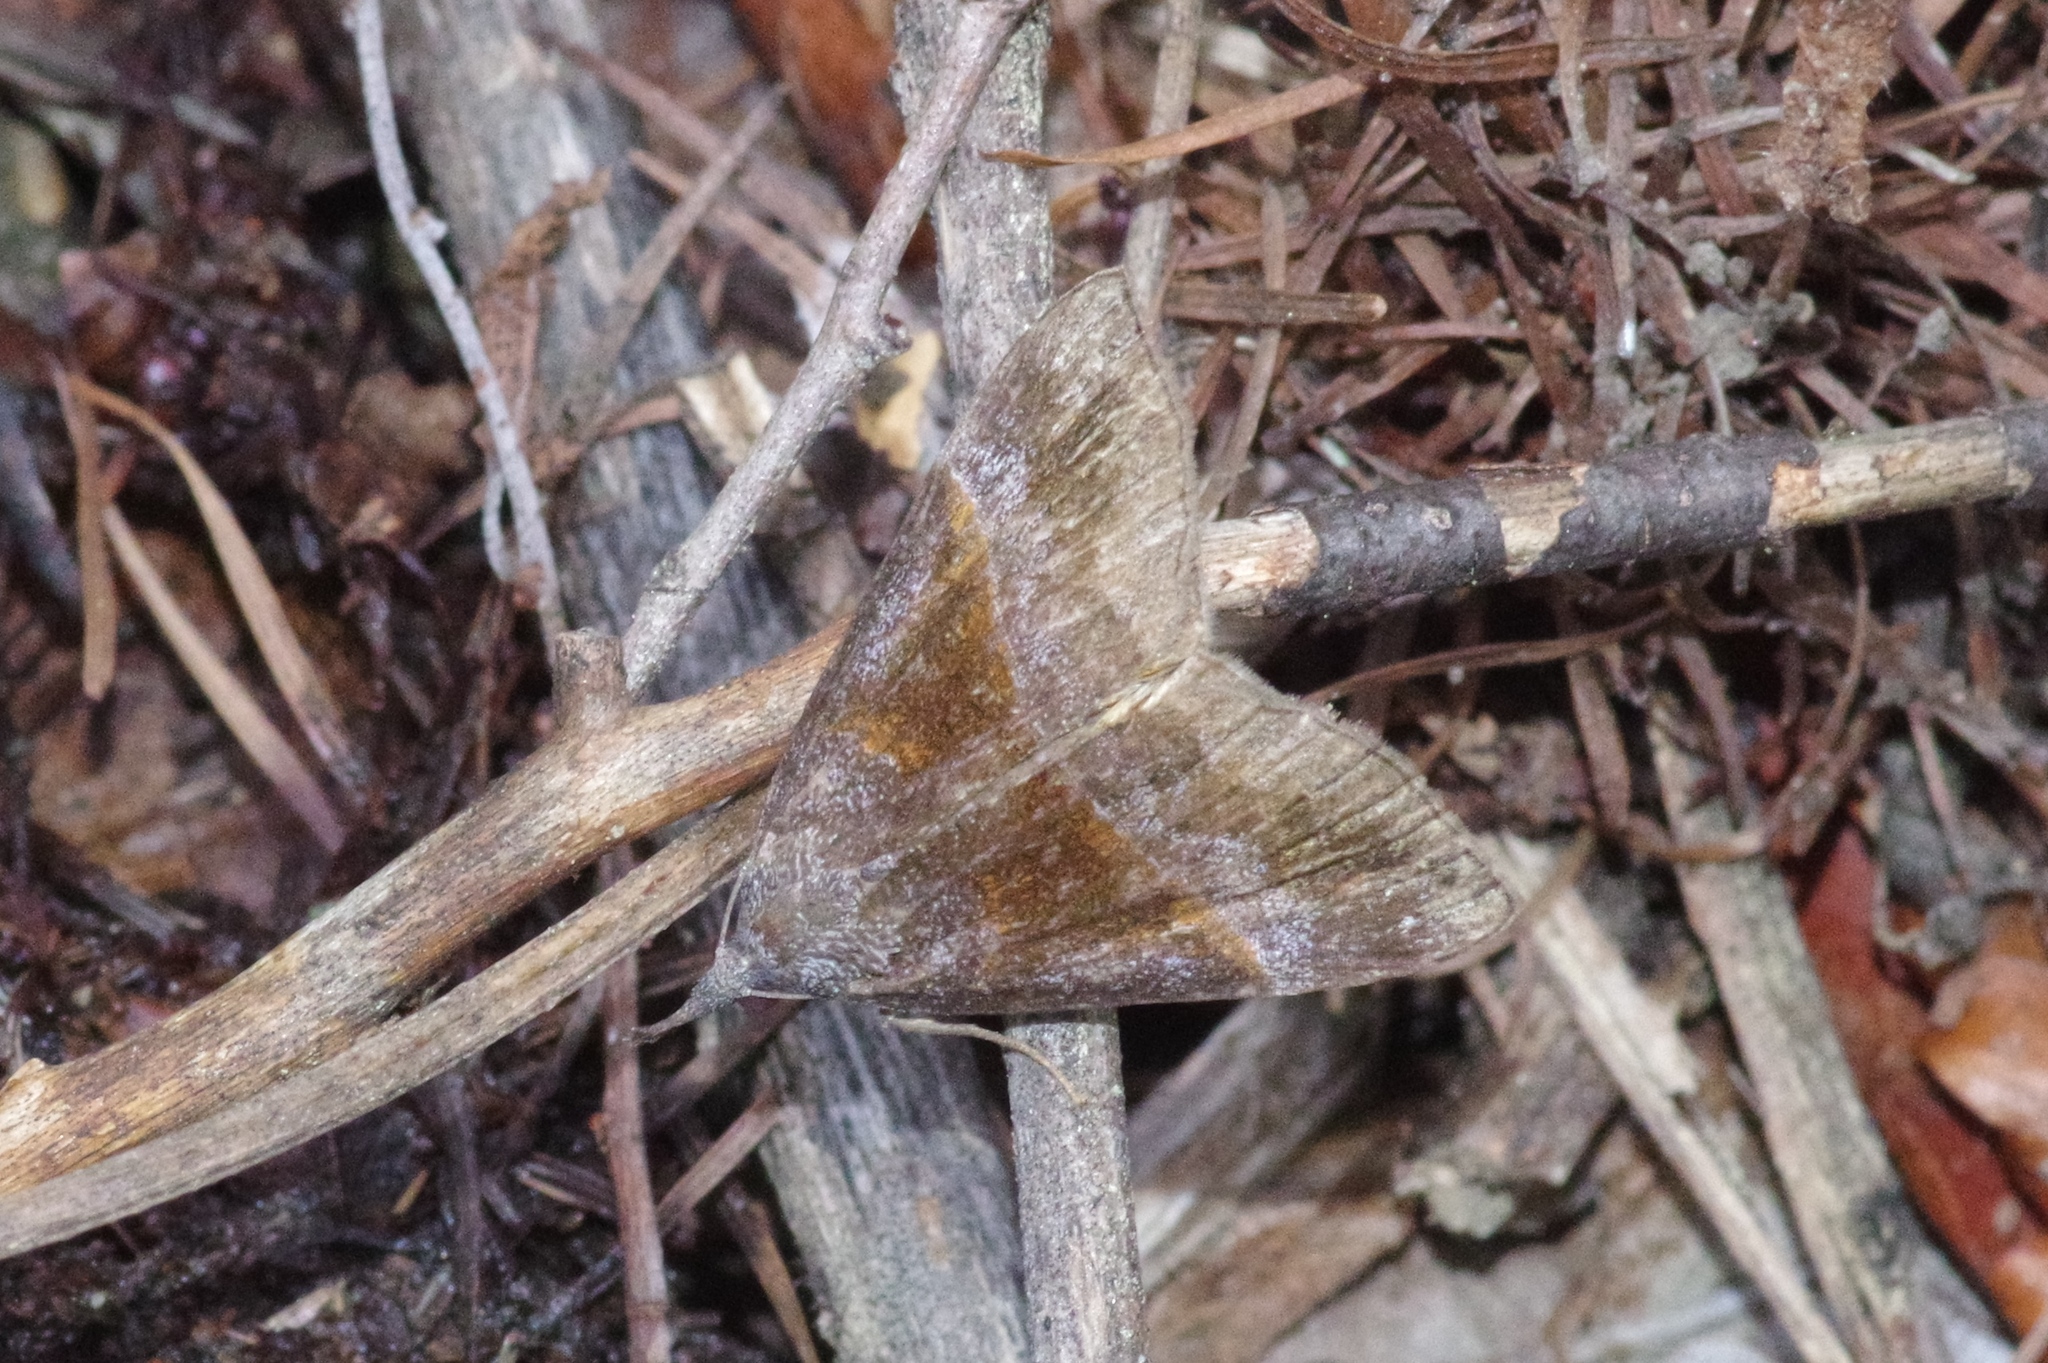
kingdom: Animalia
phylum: Arthropoda
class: Insecta
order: Lepidoptera
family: Erebidae
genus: Hypena
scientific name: Hypena amica
